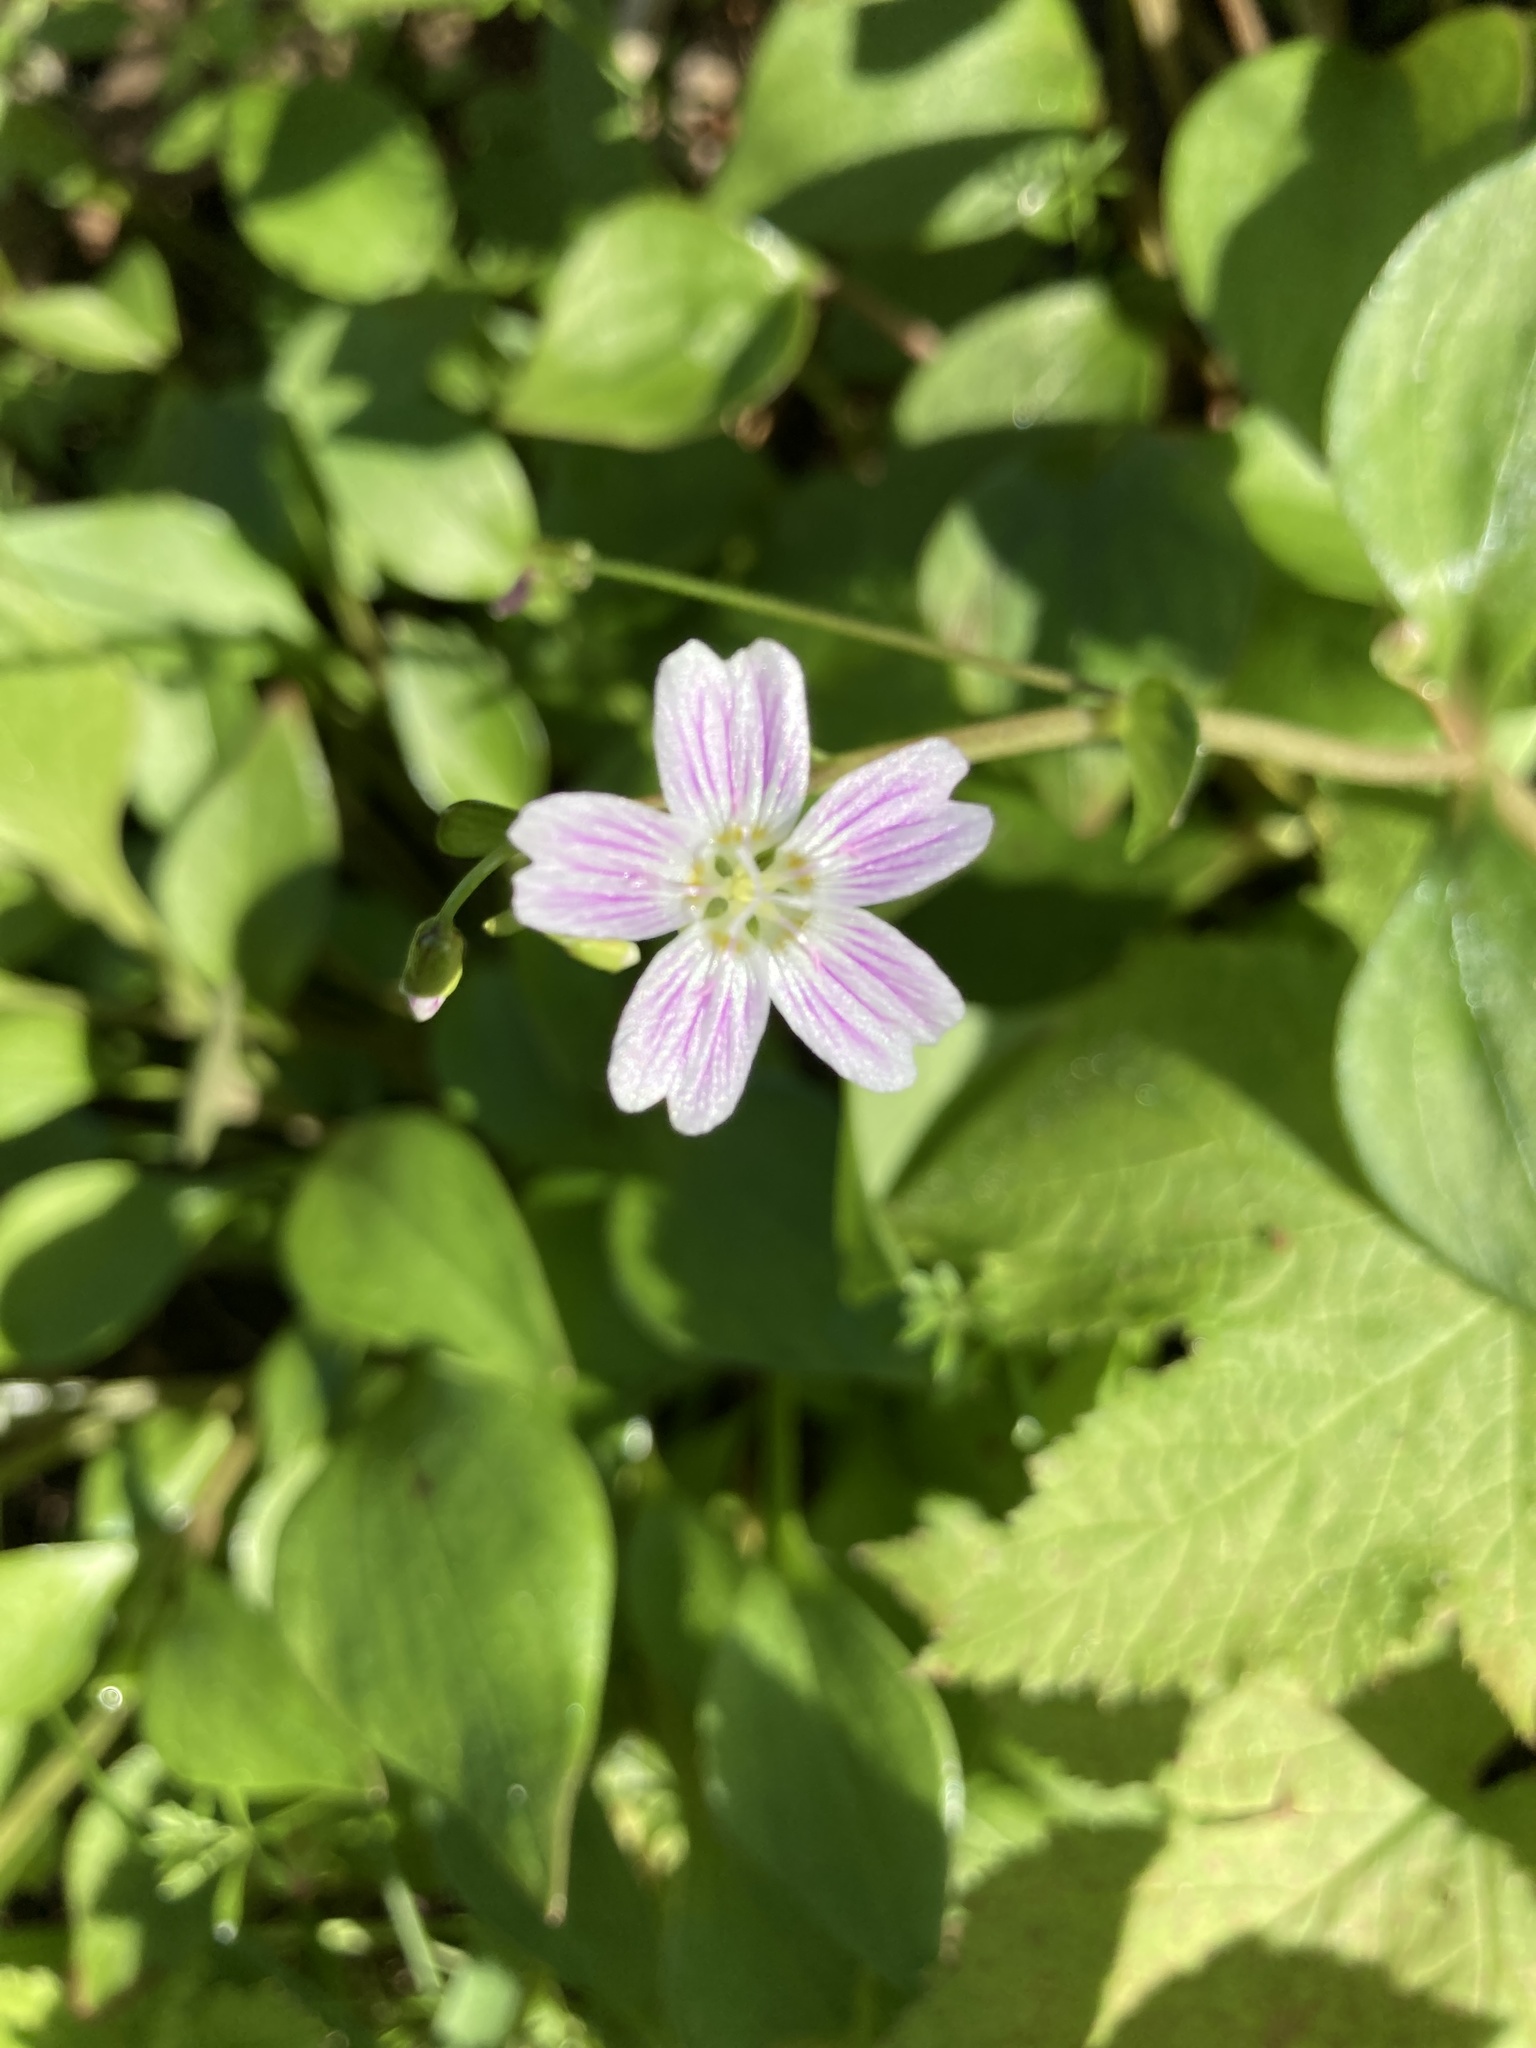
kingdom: Plantae
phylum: Tracheophyta
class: Magnoliopsida
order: Caryophyllales
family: Montiaceae
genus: Claytonia
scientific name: Claytonia sibirica
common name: Pink purslane
